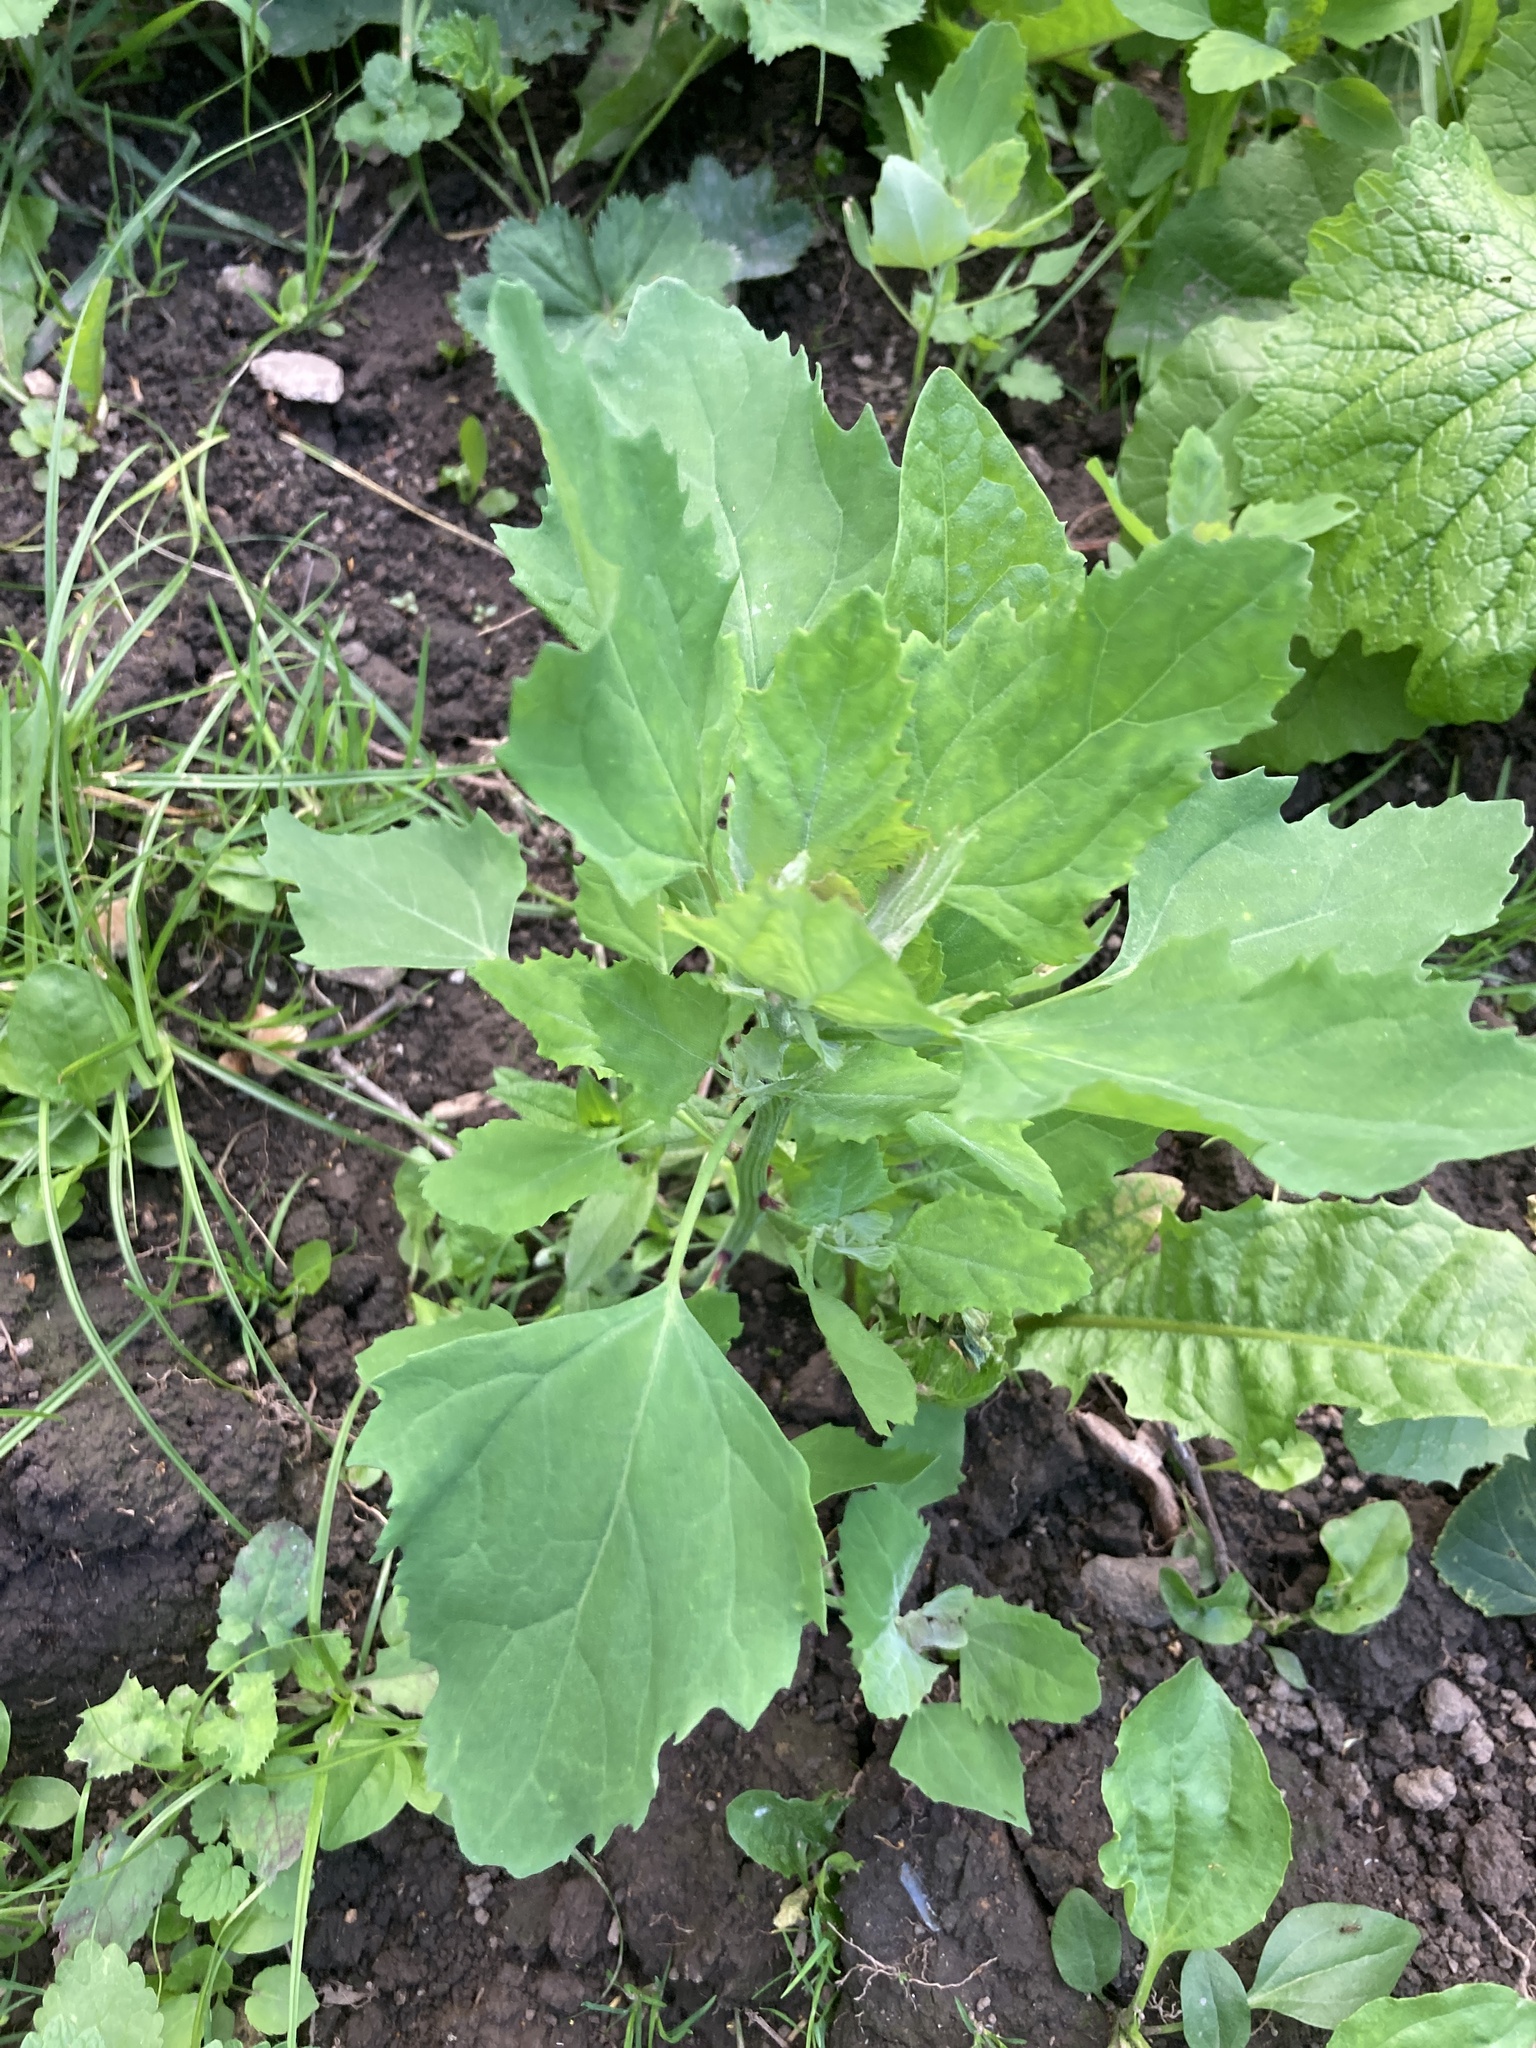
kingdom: Plantae
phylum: Tracheophyta
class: Magnoliopsida
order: Caryophyllales
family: Amaranthaceae
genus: Chenopodium
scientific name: Chenopodium album
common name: Fat-hen
